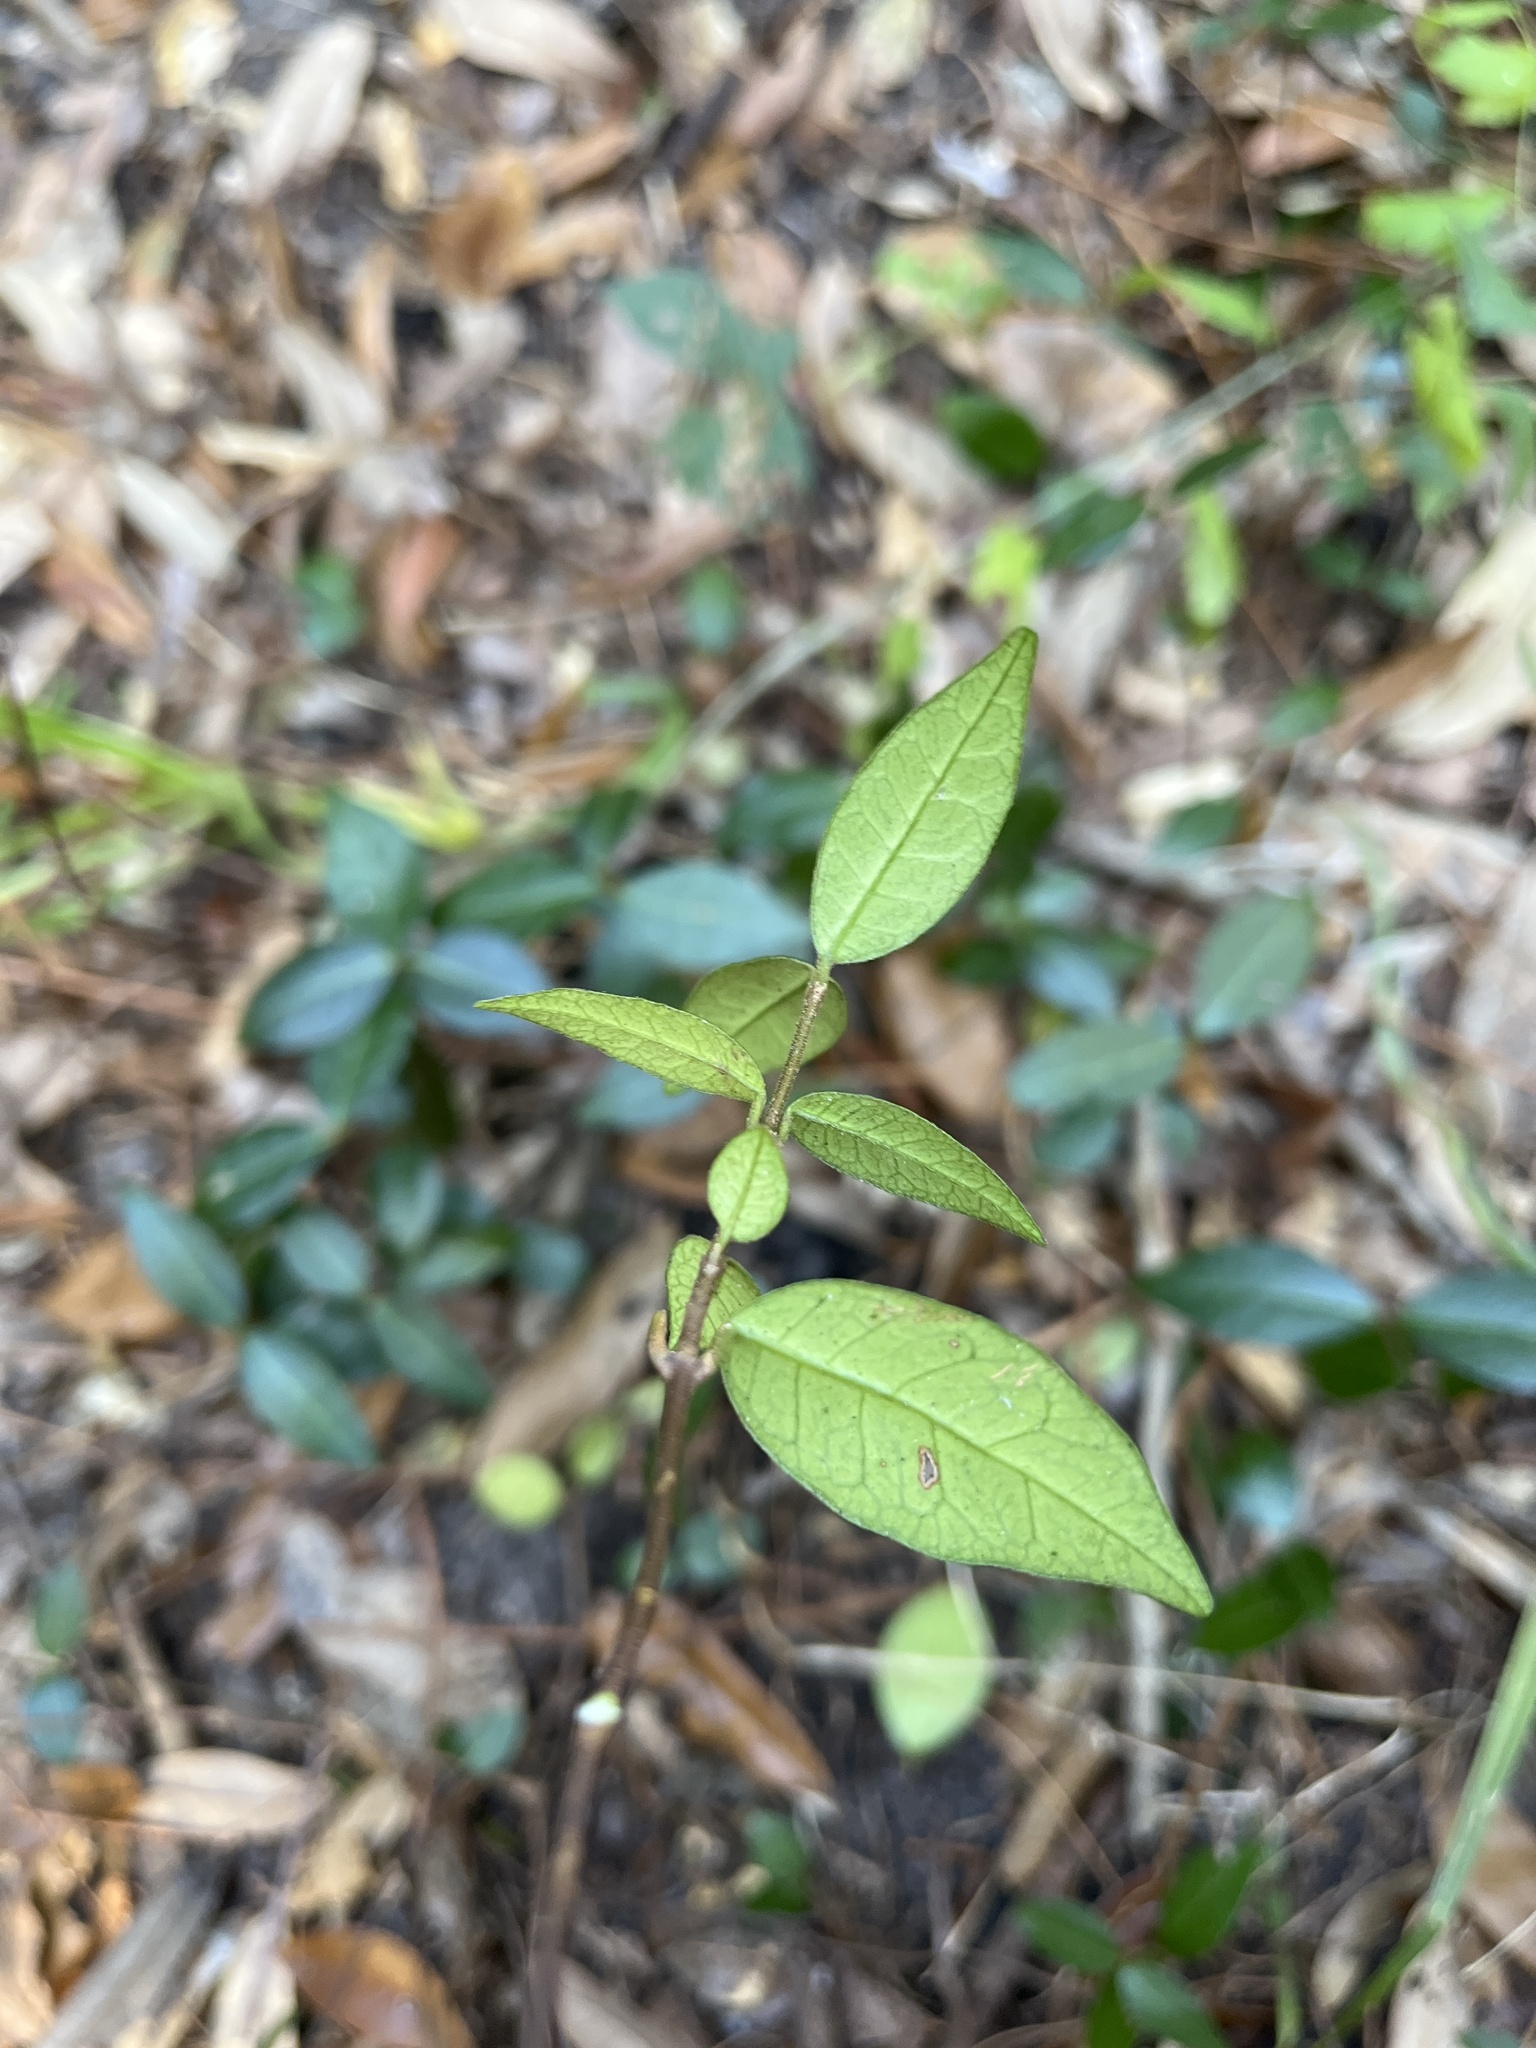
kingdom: Plantae
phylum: Tracheophyta
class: Magnoliopsida
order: Gentianales
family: Apocynaceae
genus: Trachelospermum
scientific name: Trachelospermum
